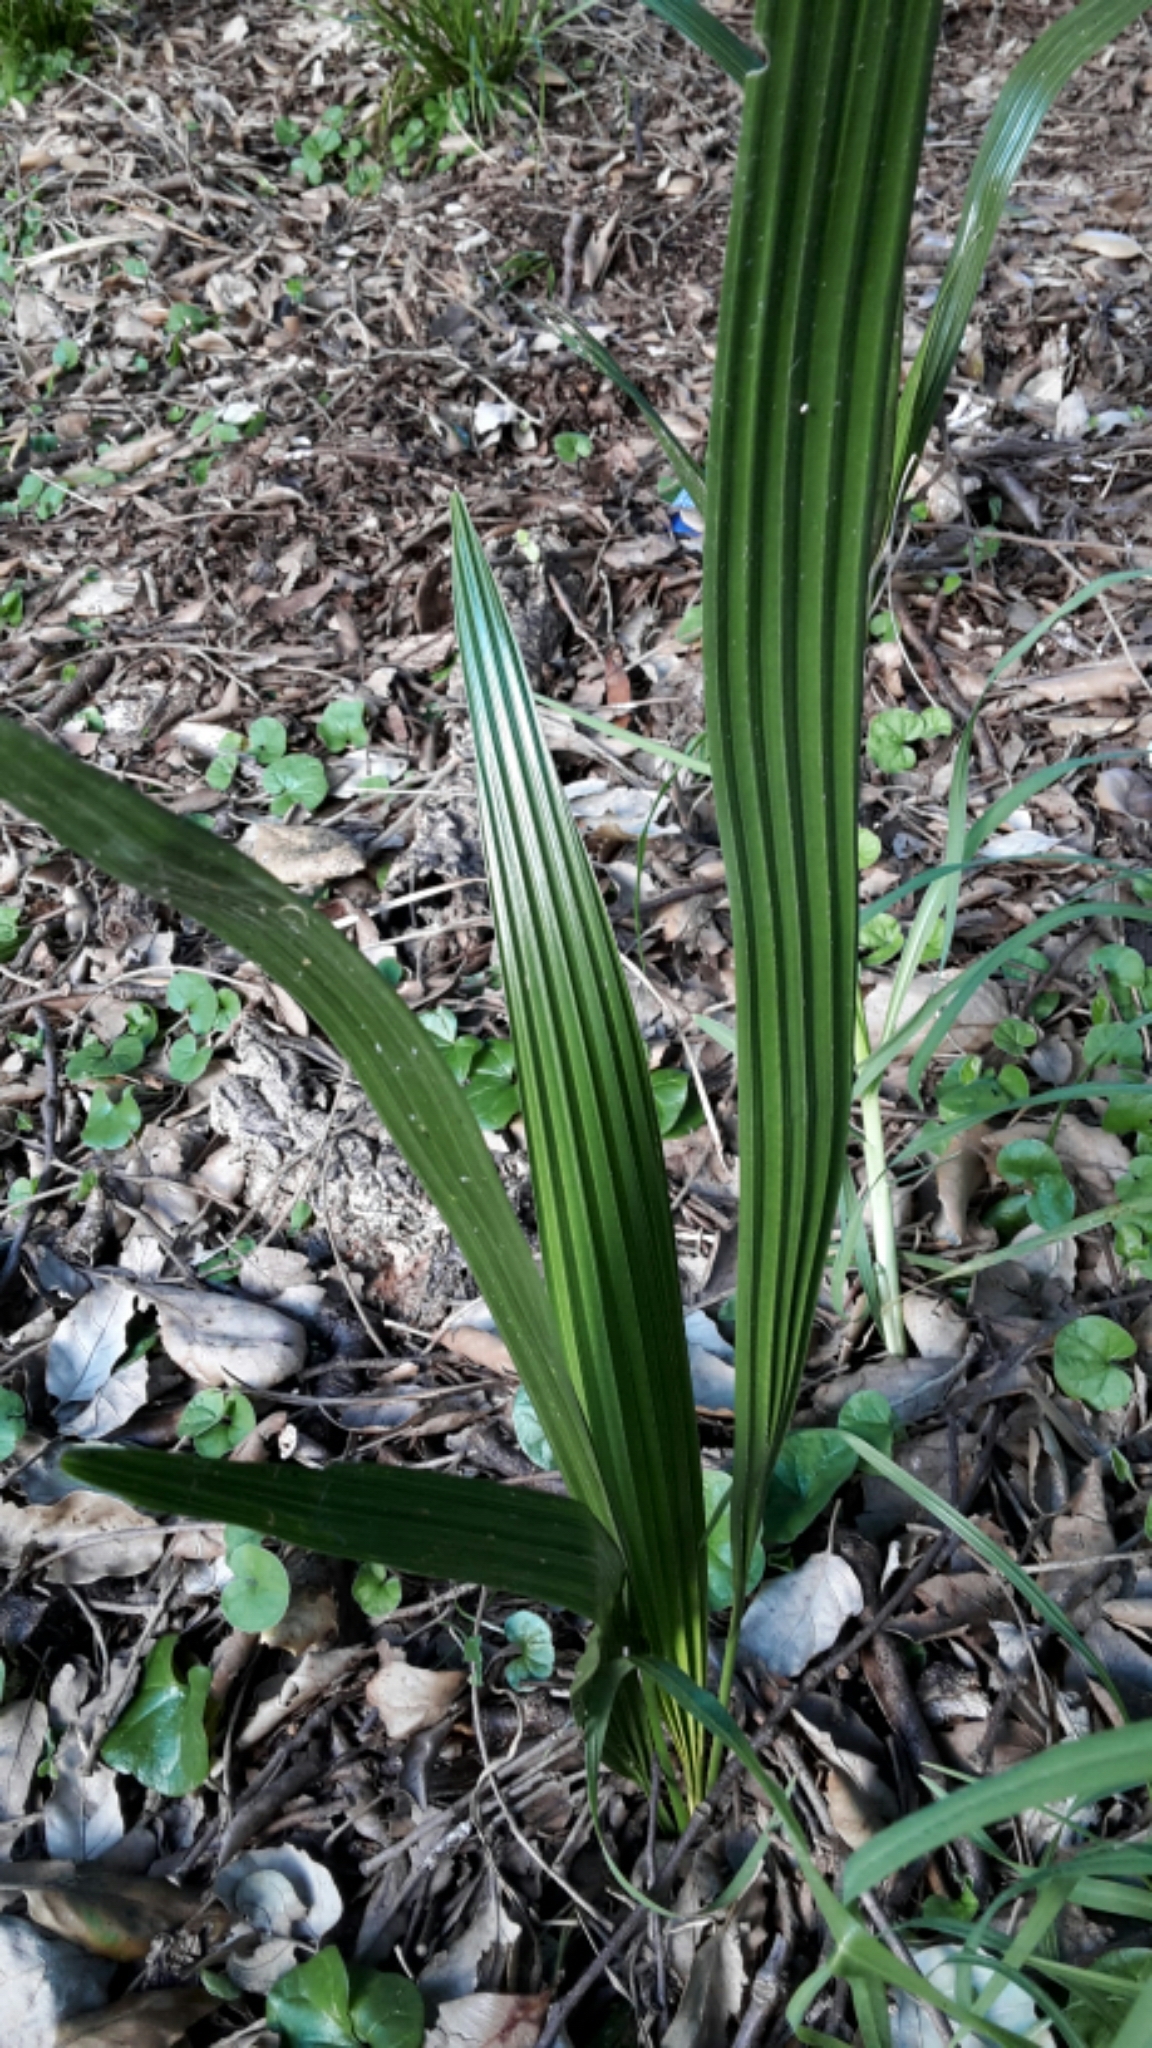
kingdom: Plantae
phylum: Tracheophyta
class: Liliopsida
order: Arecales
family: Arecaceae
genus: Phoenix
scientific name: Phoenix canariensis
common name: Canary island date palm
